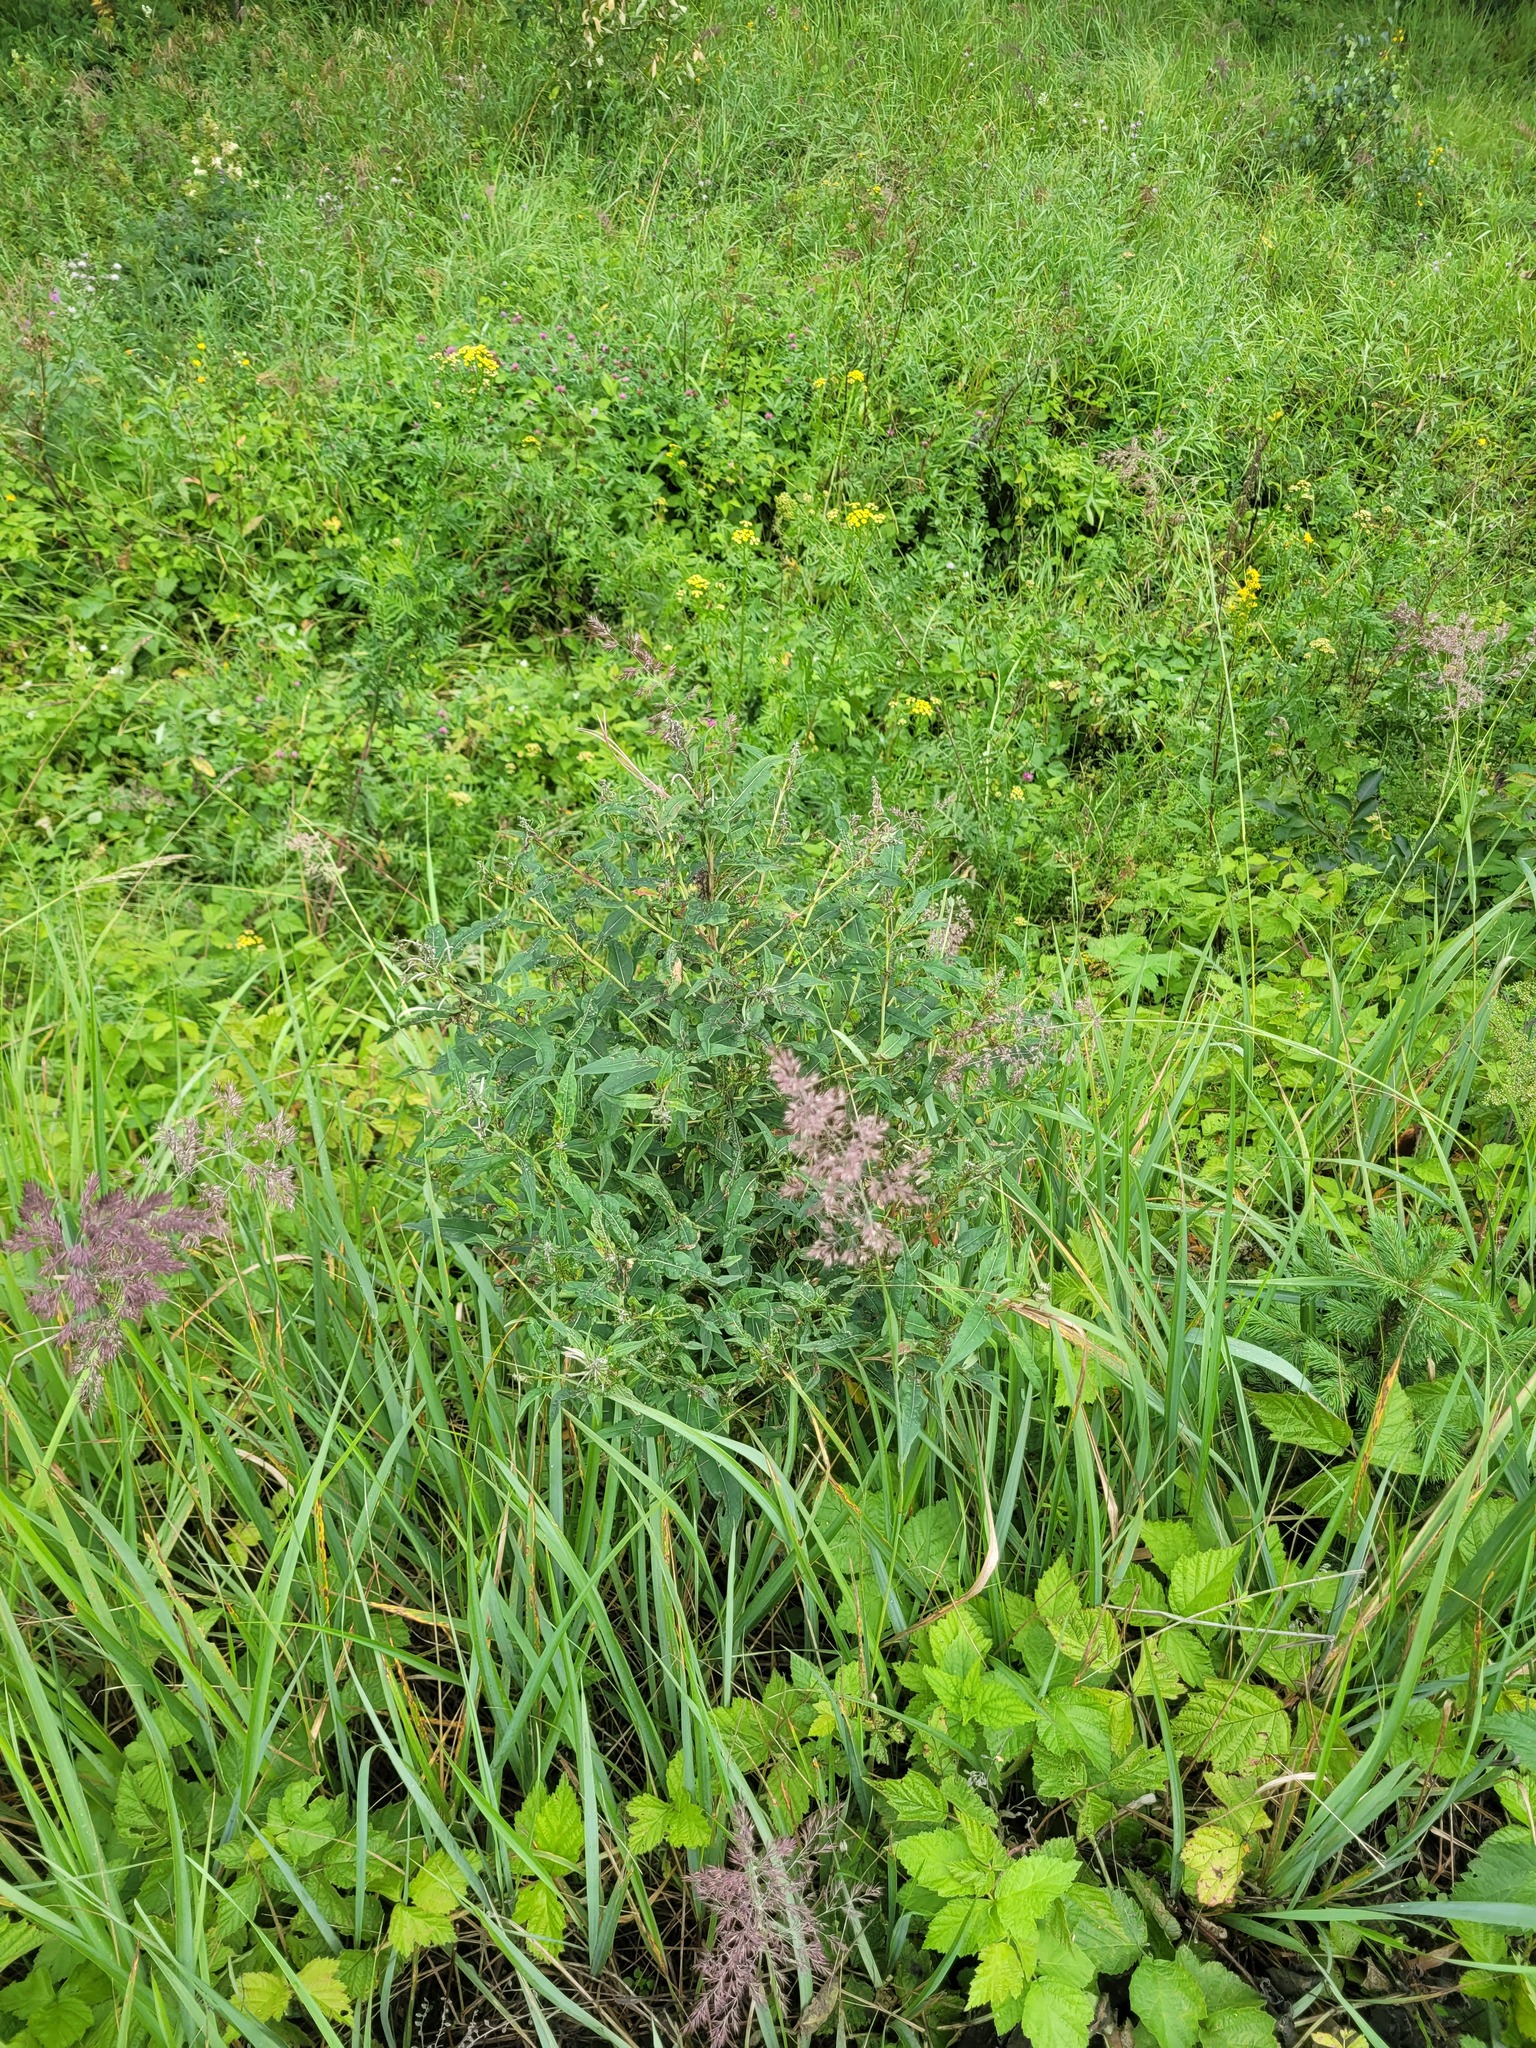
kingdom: Plantae
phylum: Tracheophyta
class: Magnoliopsida
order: Myrtales
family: Onagraceae
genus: Chamaenerion
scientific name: Chamaenerion angustifolium
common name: Fireweed
